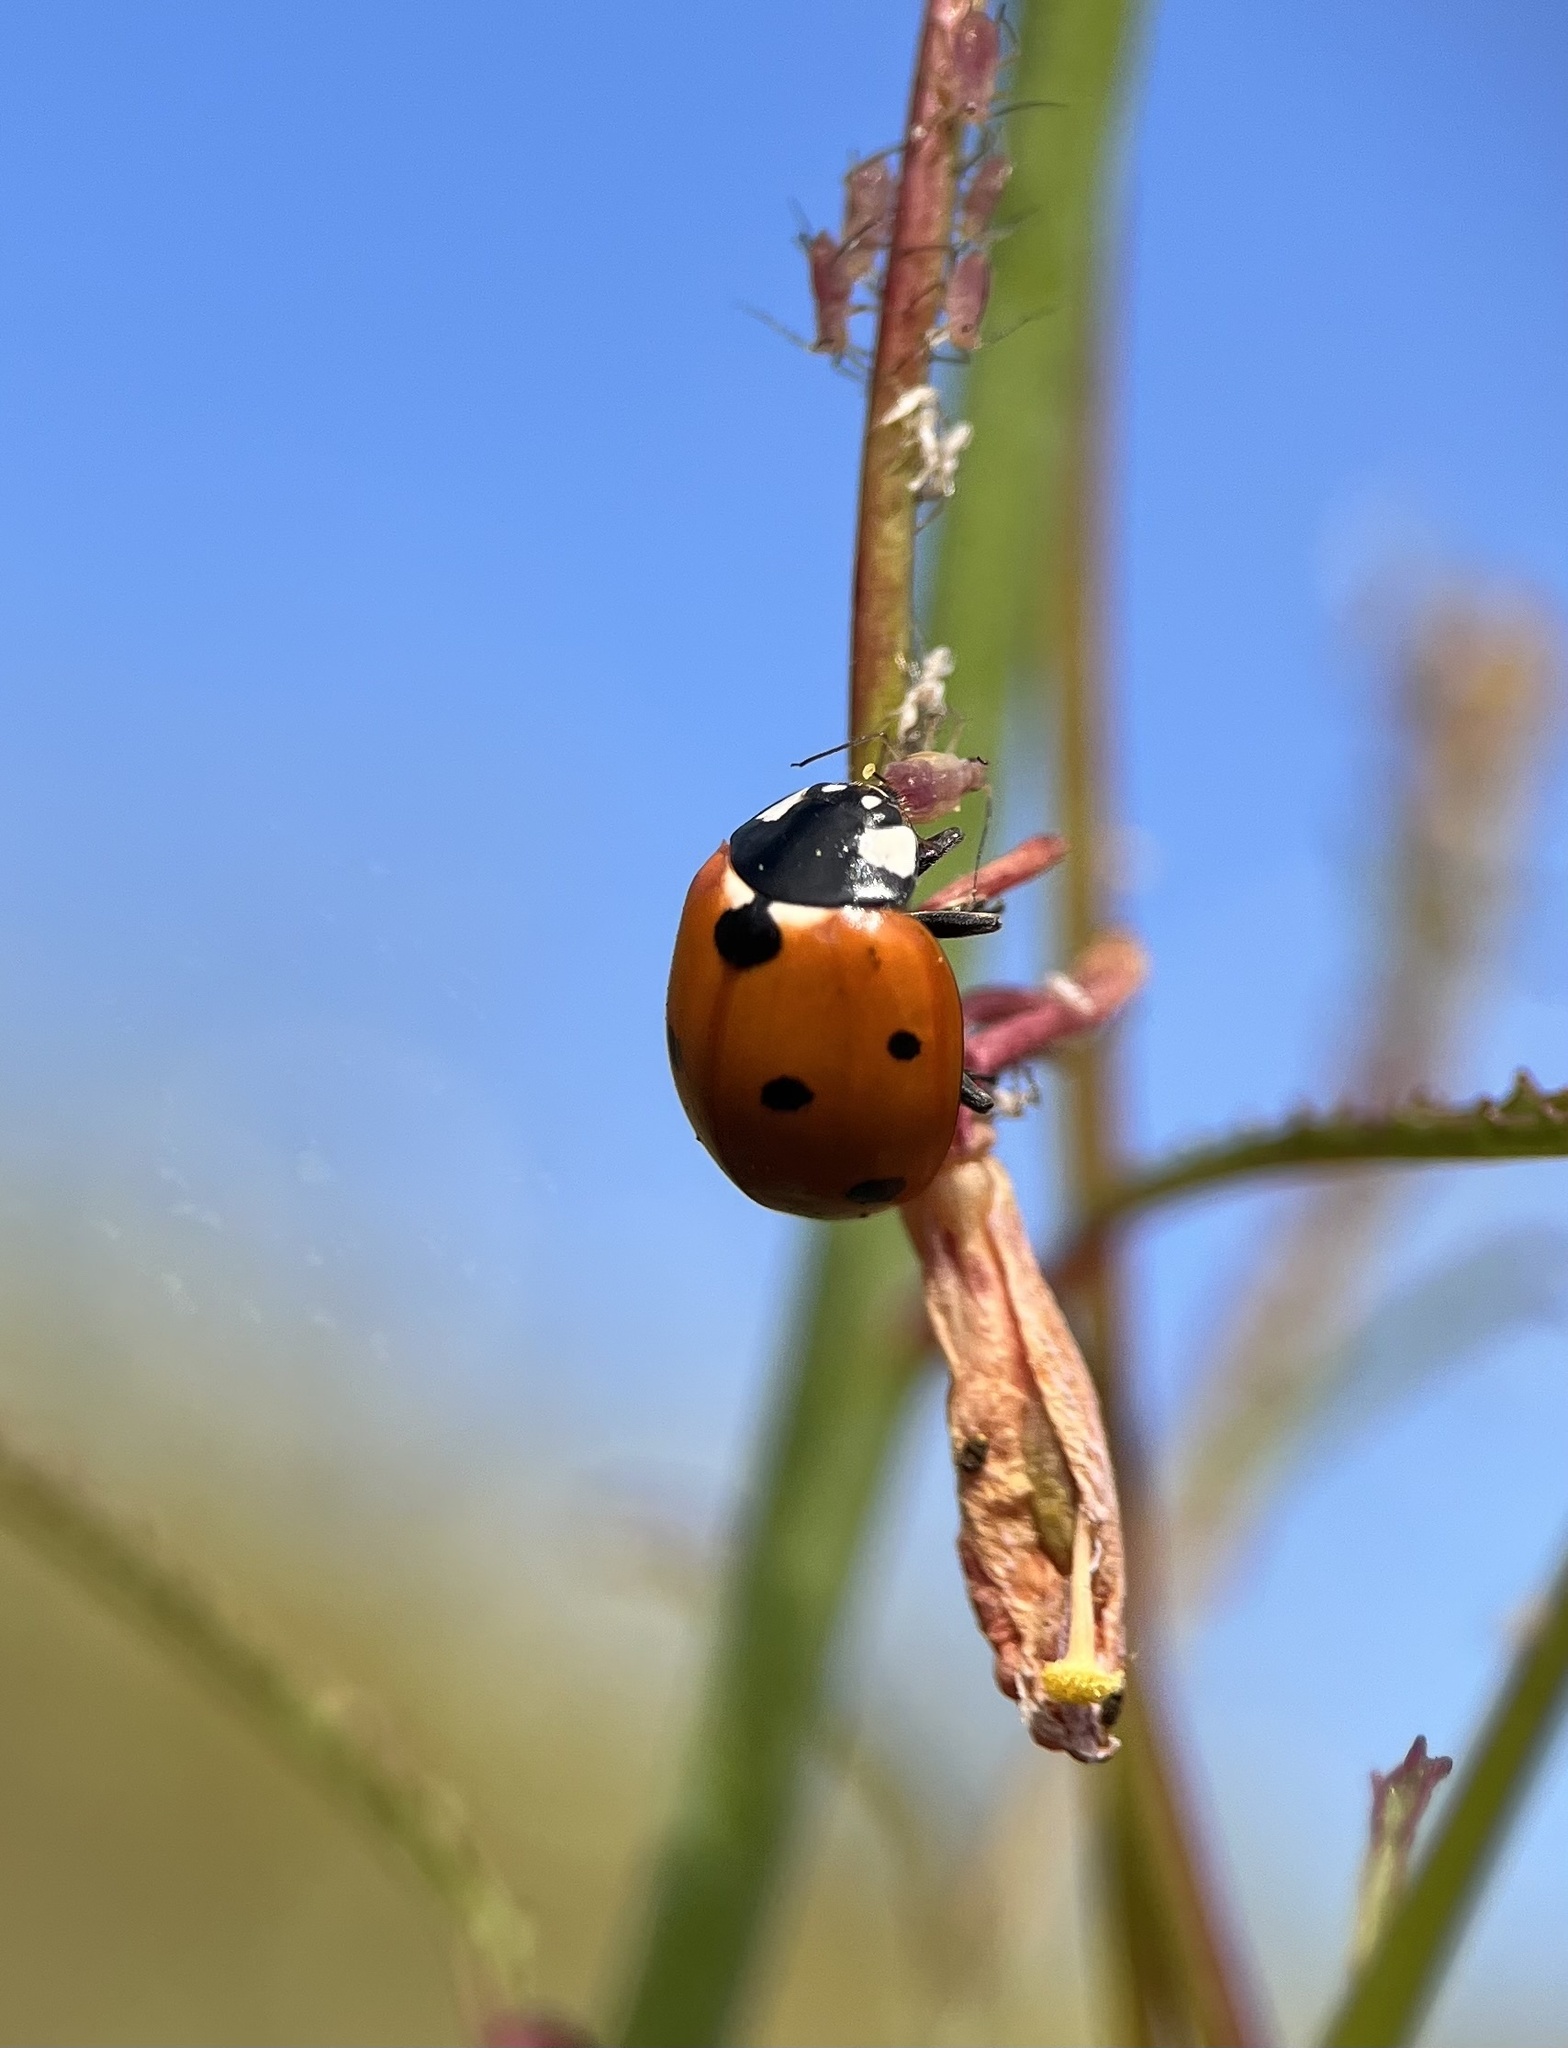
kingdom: Animalia
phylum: Arthropoda
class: Insecta
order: Coleoptera
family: Coccinellidae
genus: Coccinella
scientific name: Coccinella septempunctata
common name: Sevenspotted lady beetle
